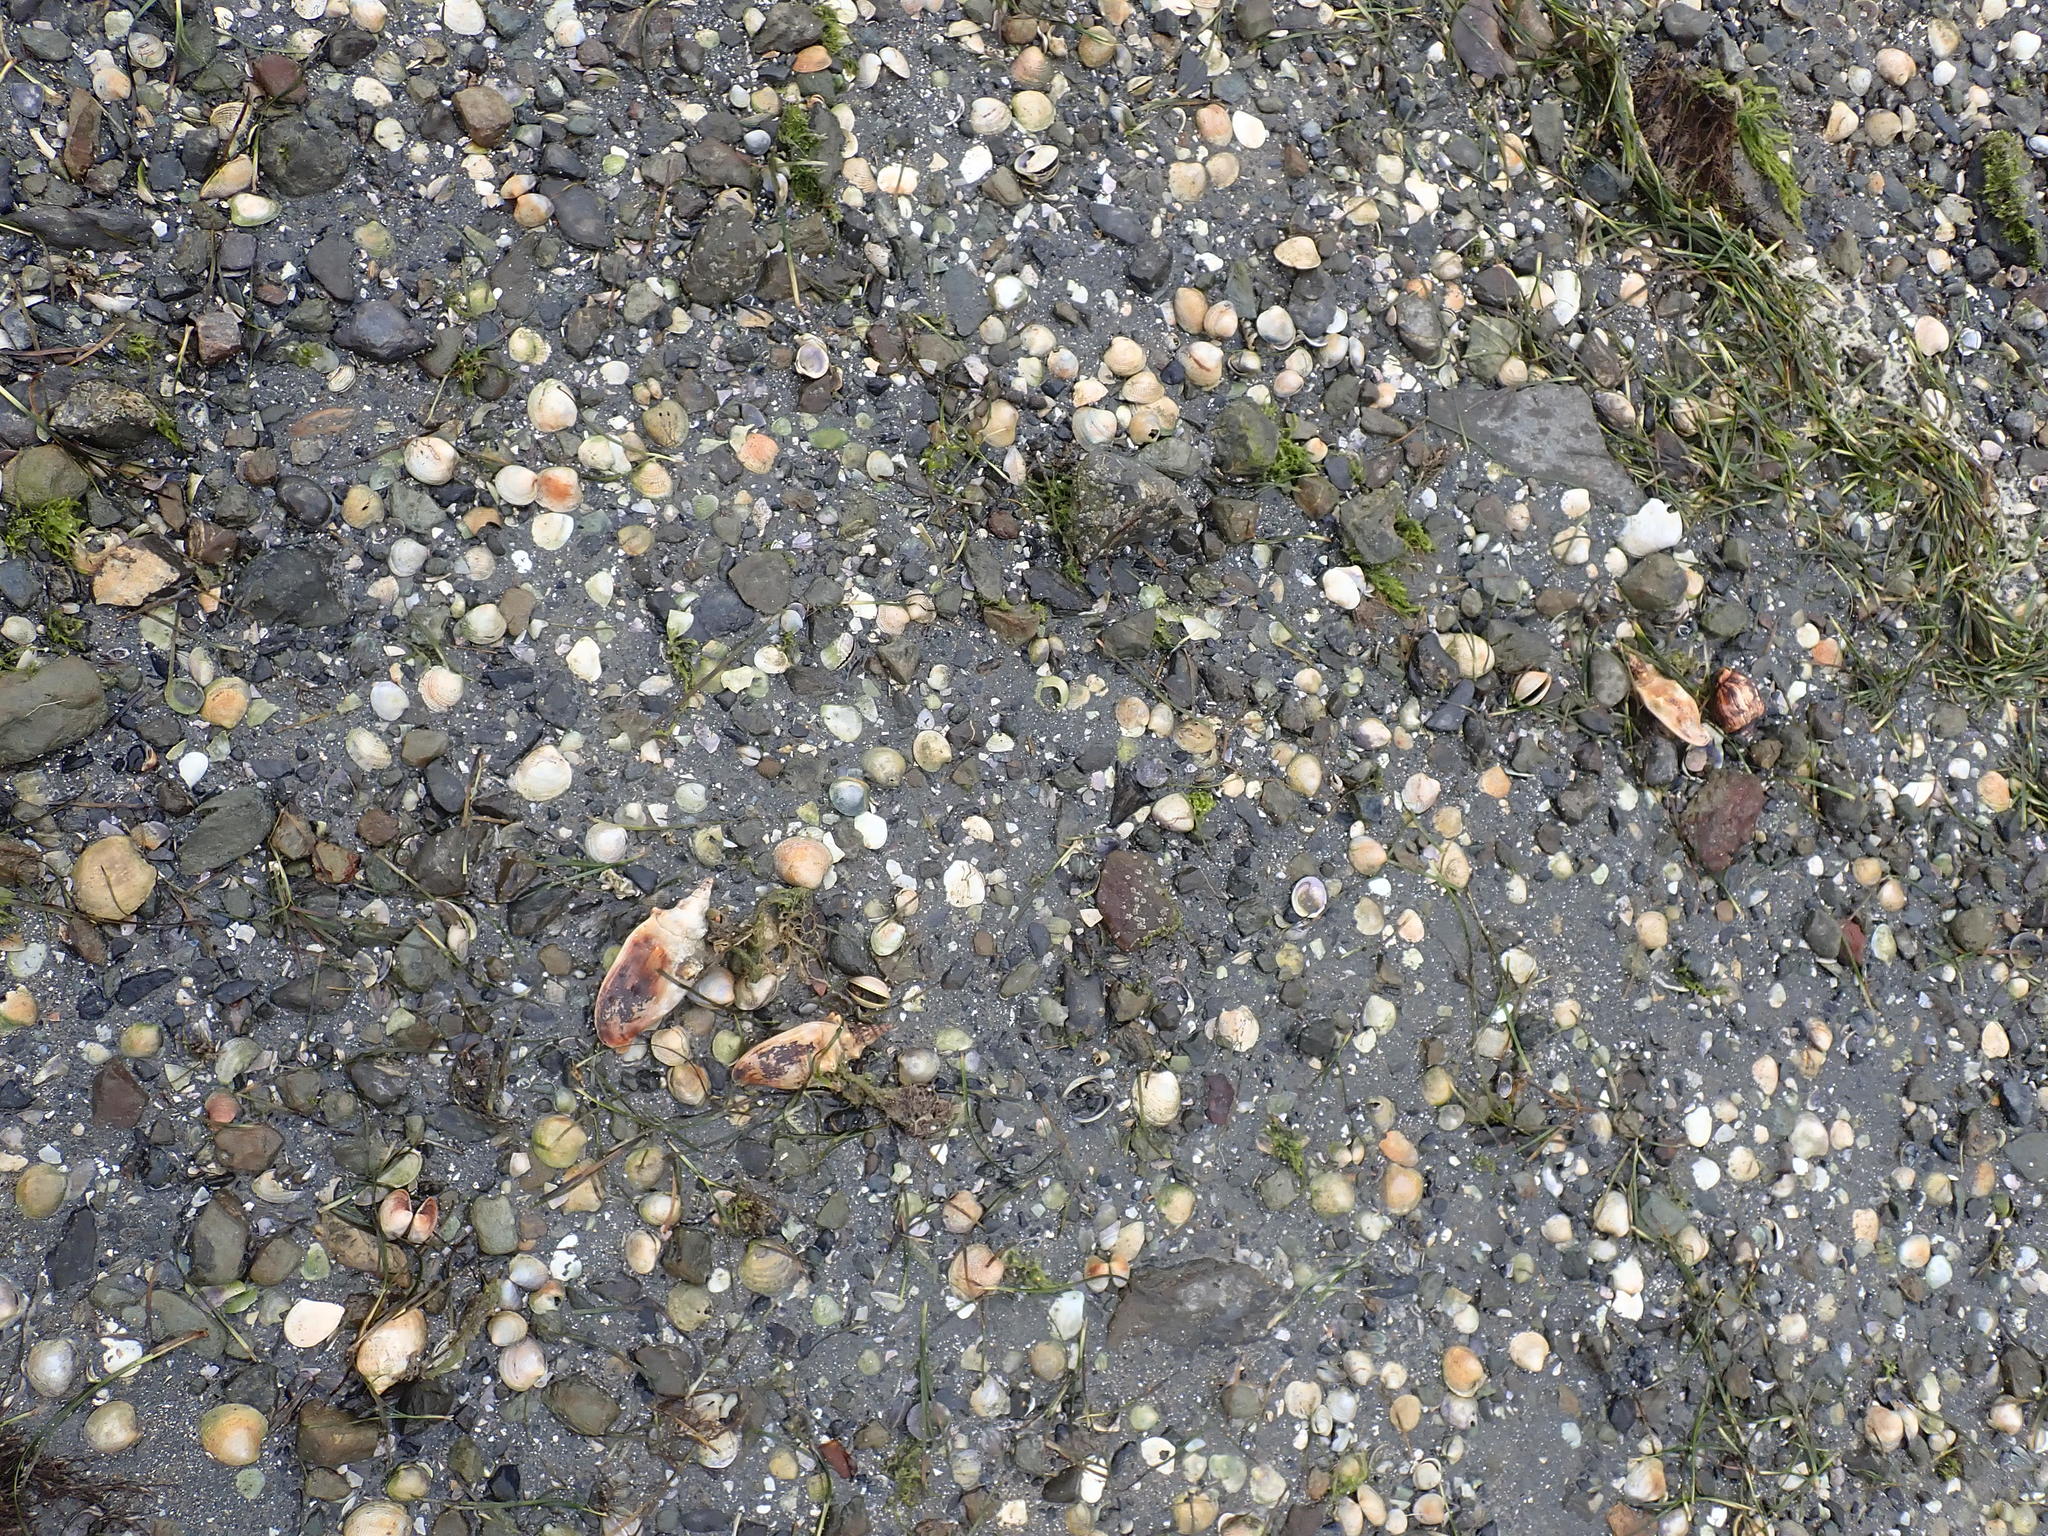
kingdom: Animalia
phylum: Mollusca
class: Gastropoda
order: Neogastropoda
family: Volutidae
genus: Alcithoe
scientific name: Alcithoe arabica
